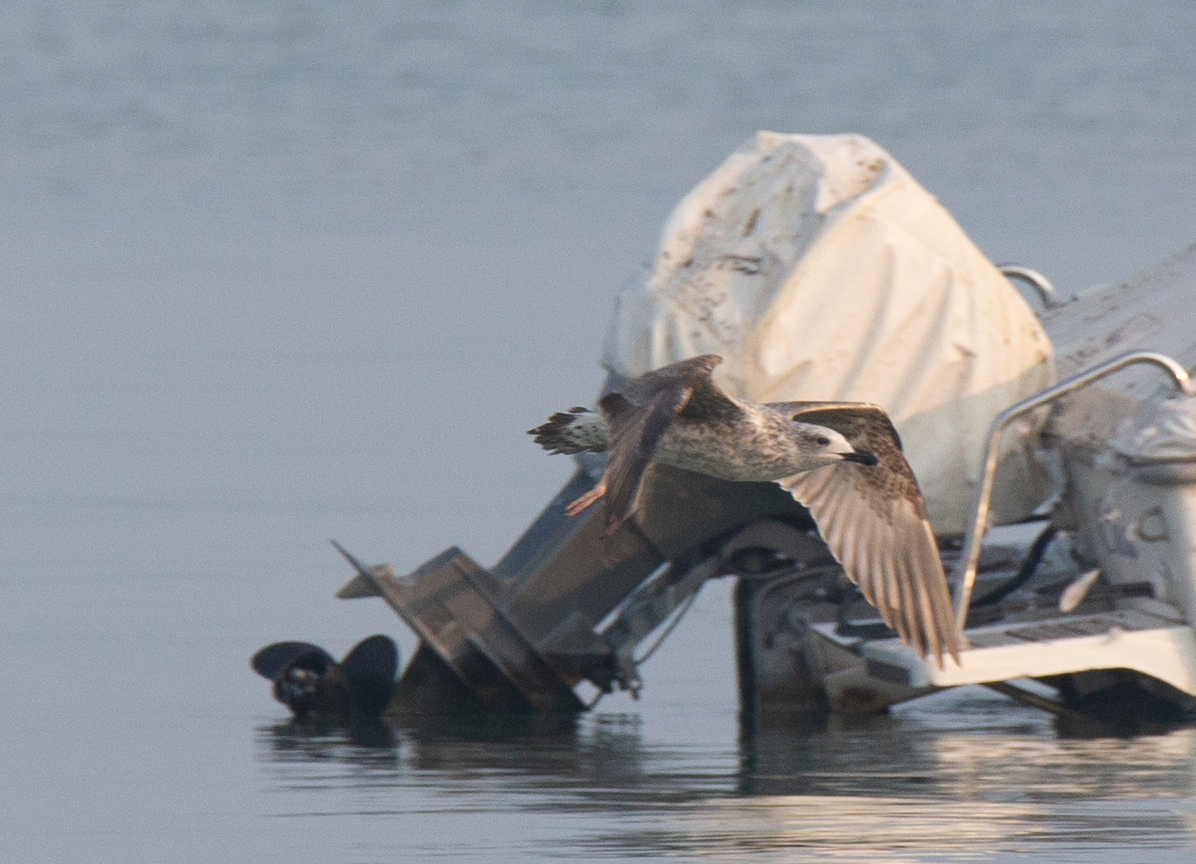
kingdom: Animalia
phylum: Chordata
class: Aves
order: Charadriiformes
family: Laridae
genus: Larus
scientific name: Larus michahellis
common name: Yellow-legged gull
